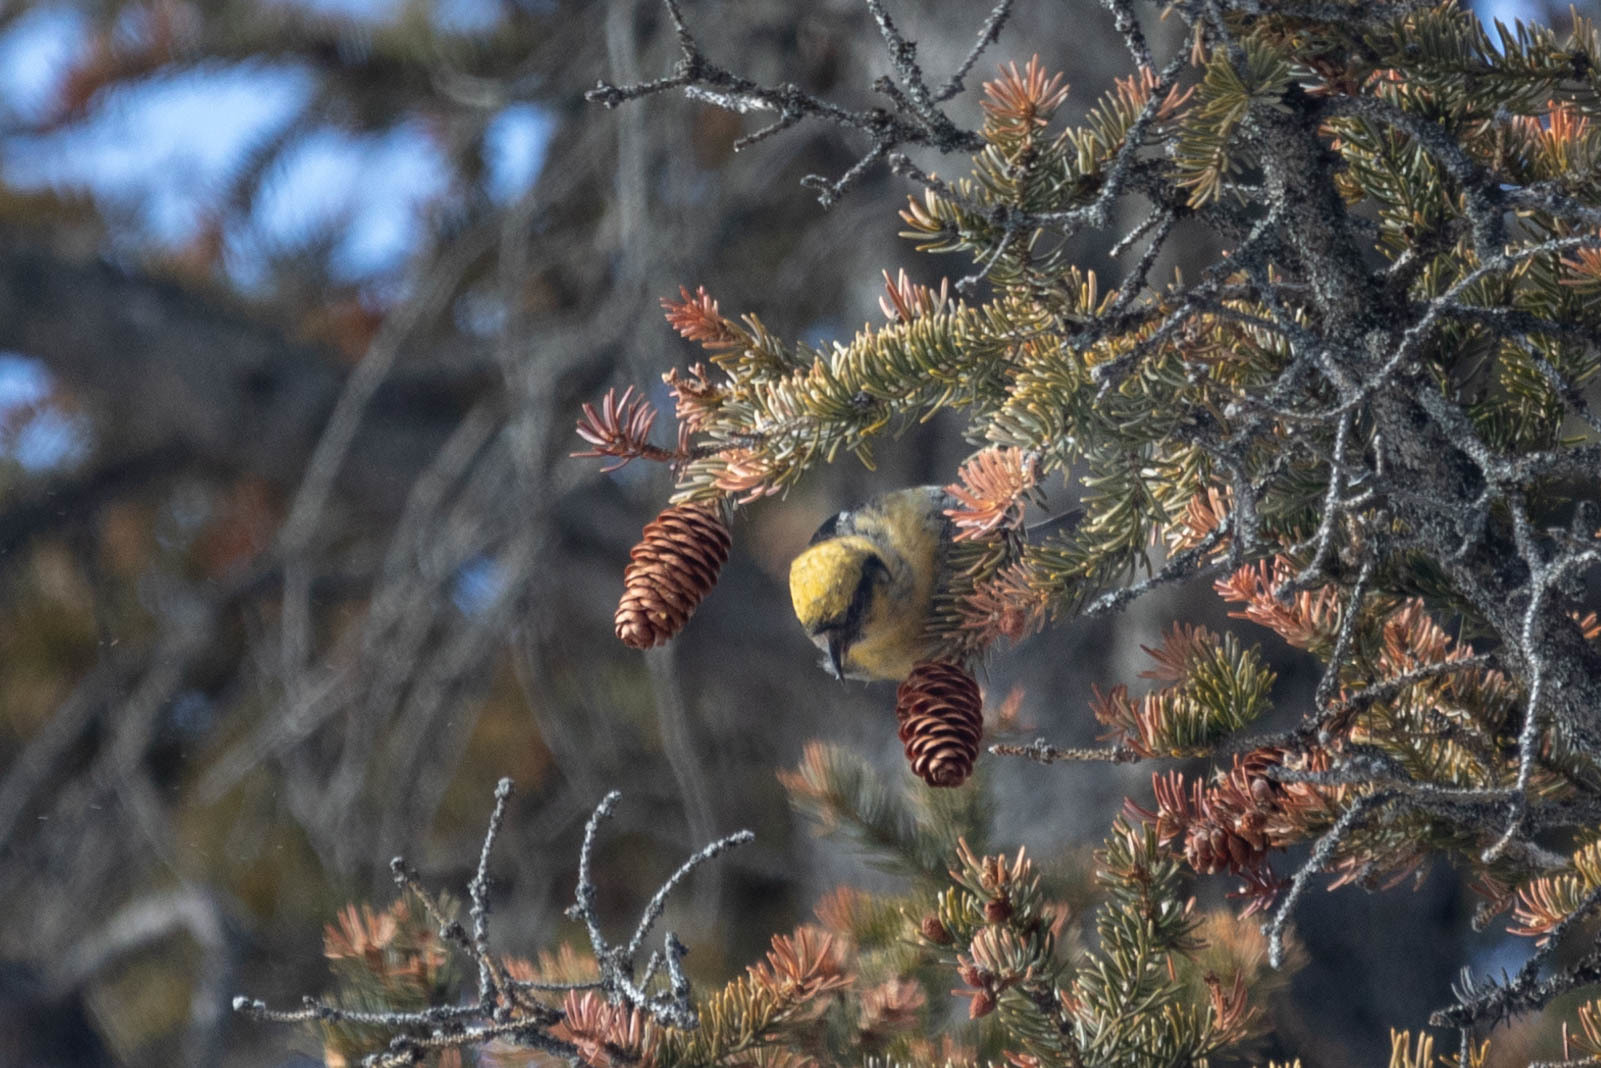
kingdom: Animalia
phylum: Chordata
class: Aves
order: Passeriformes
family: Fringillidae
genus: Loxia
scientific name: Loxia leucoptera
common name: Two-barred crossbill
